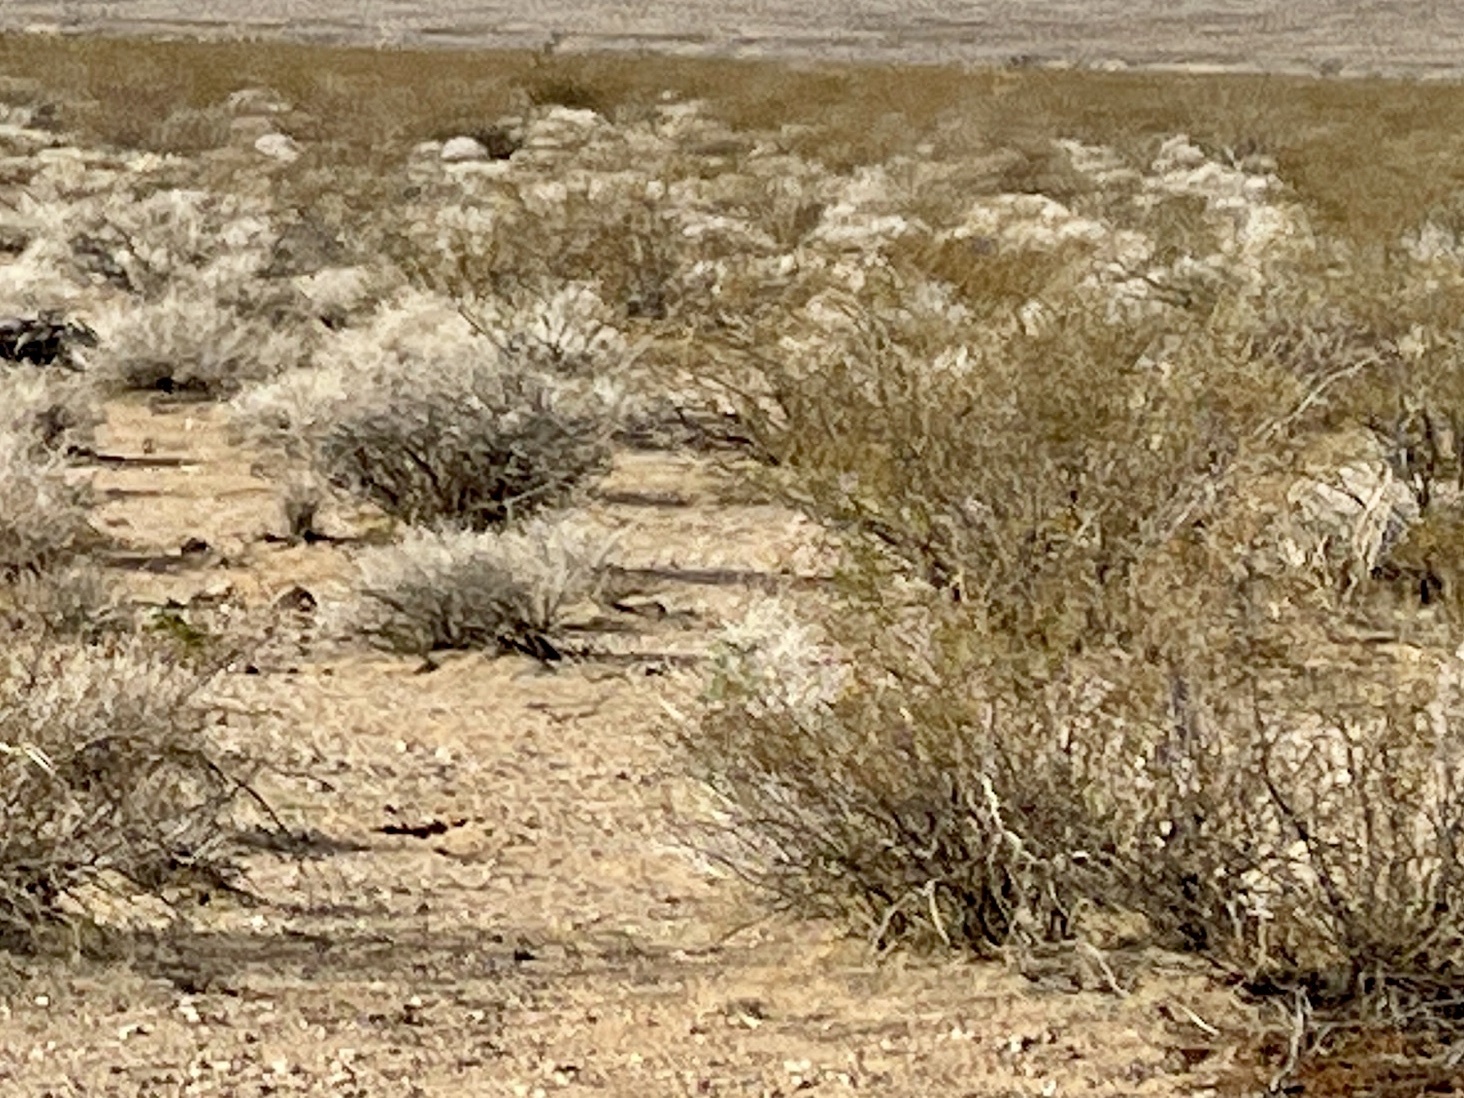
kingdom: Plantae
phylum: Tracheophyta
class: Magnoliopsida
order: Zygophyllales
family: Zygophyllaceae
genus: Larrea
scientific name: Larrea tridentata
